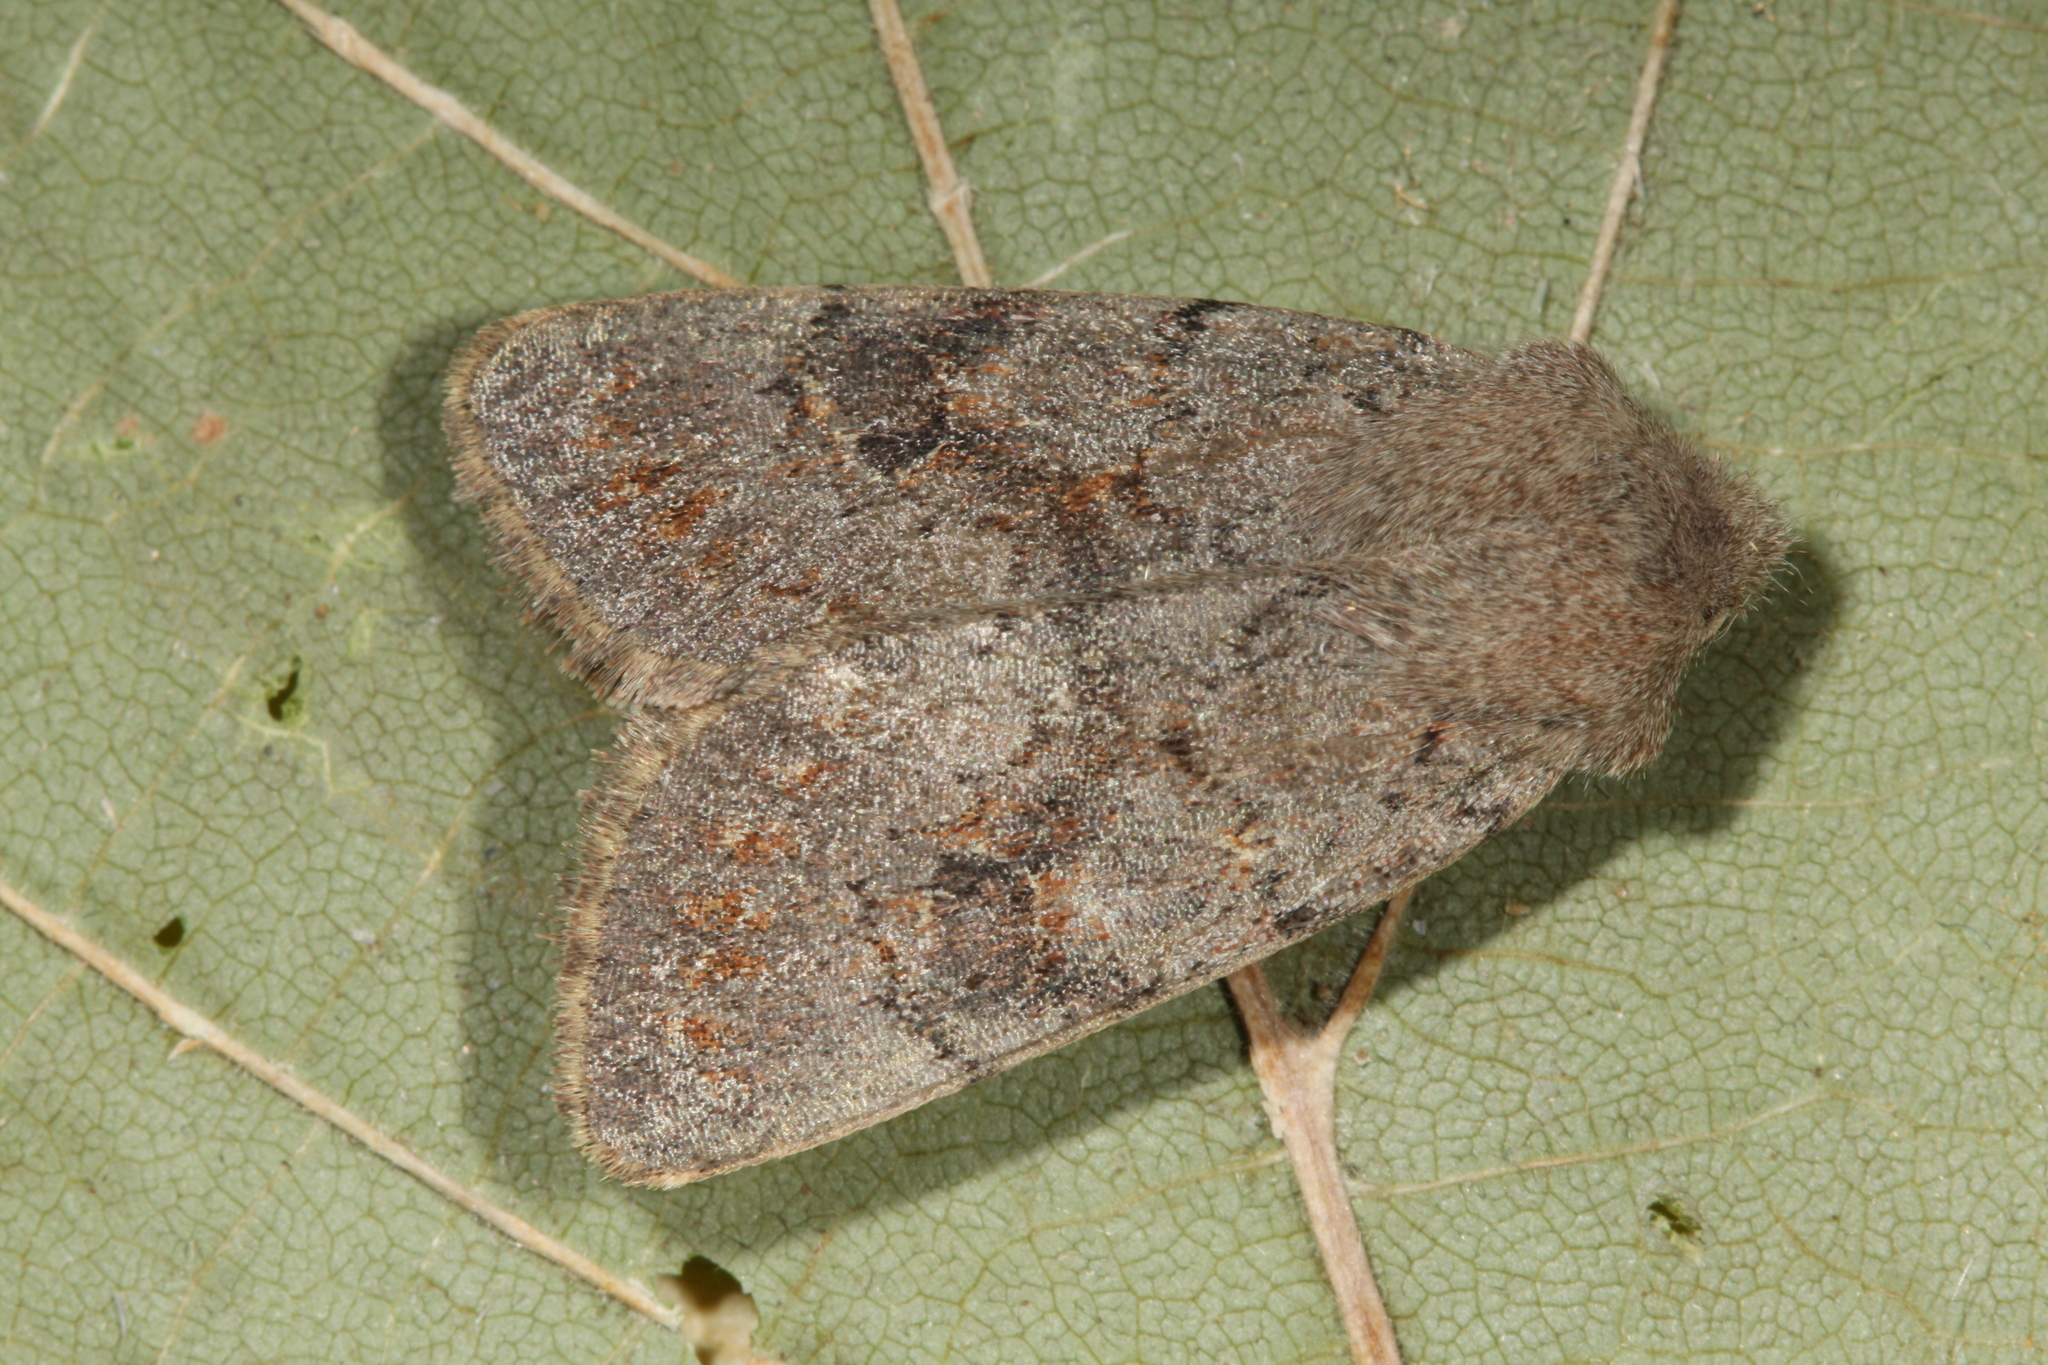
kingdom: Animalia
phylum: Arthropoda
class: Insecta
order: Lepidoptera
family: Noctuidae
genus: Orthosia
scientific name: Orthosia populeti
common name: Lead-coloured drab
